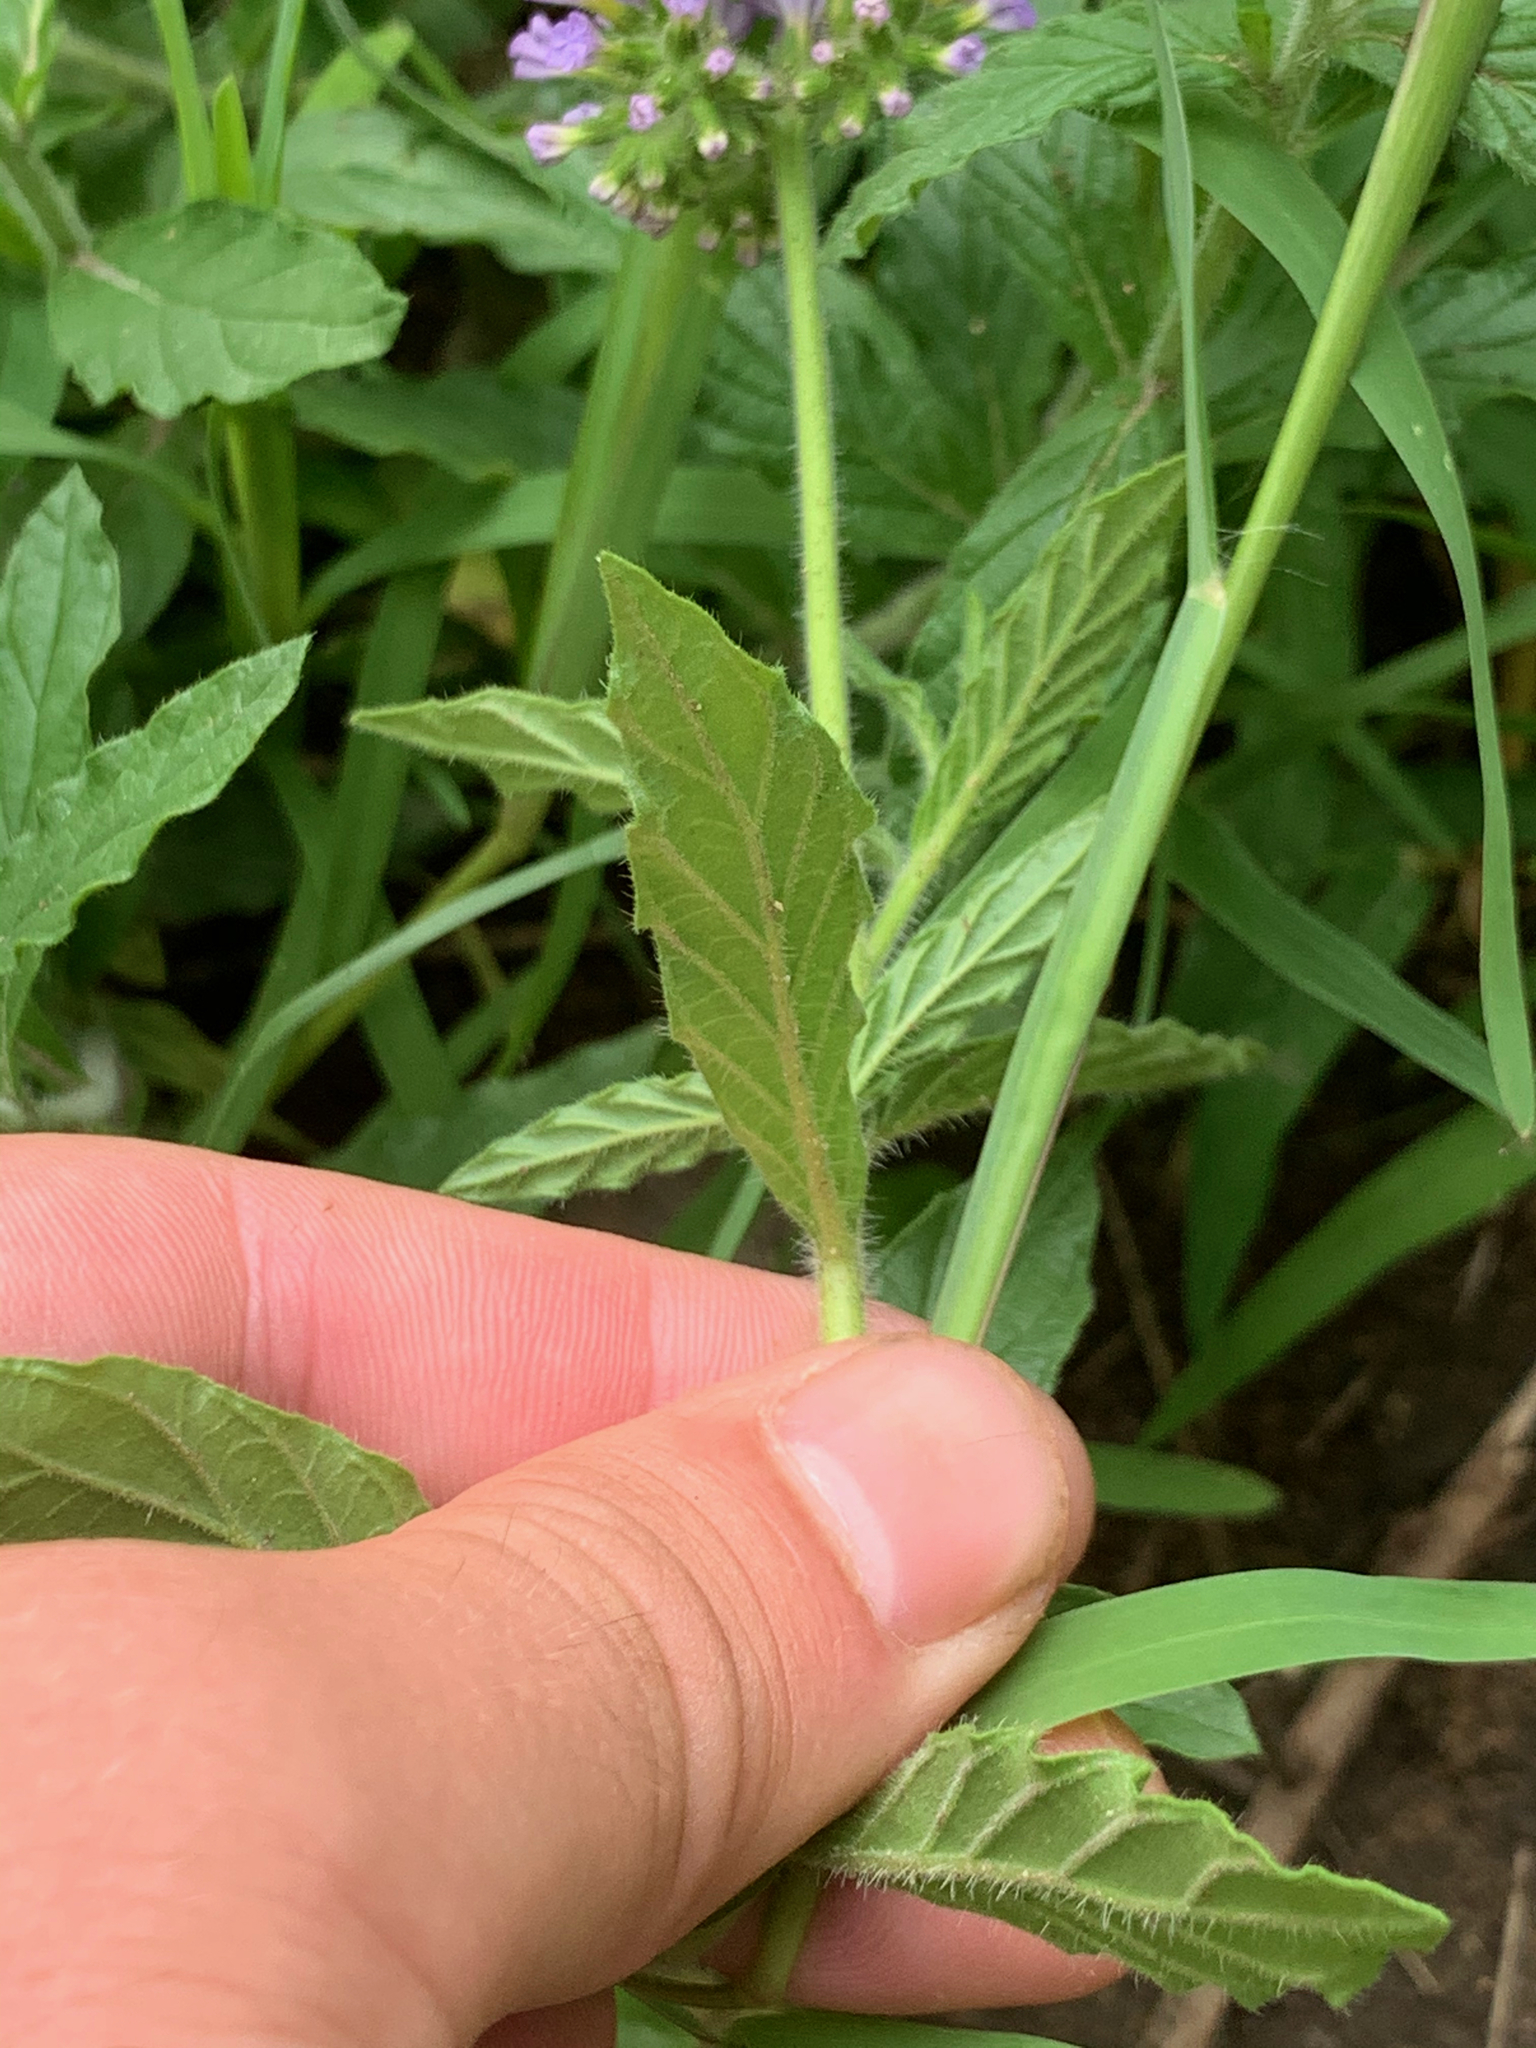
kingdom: Plantae
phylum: Tracheophyta
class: Magnoliopsida
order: Boraginales
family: Heliotropiaceae
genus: Heliotropium
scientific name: Heliotropium amplexicaule
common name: Clasping heliotrope
